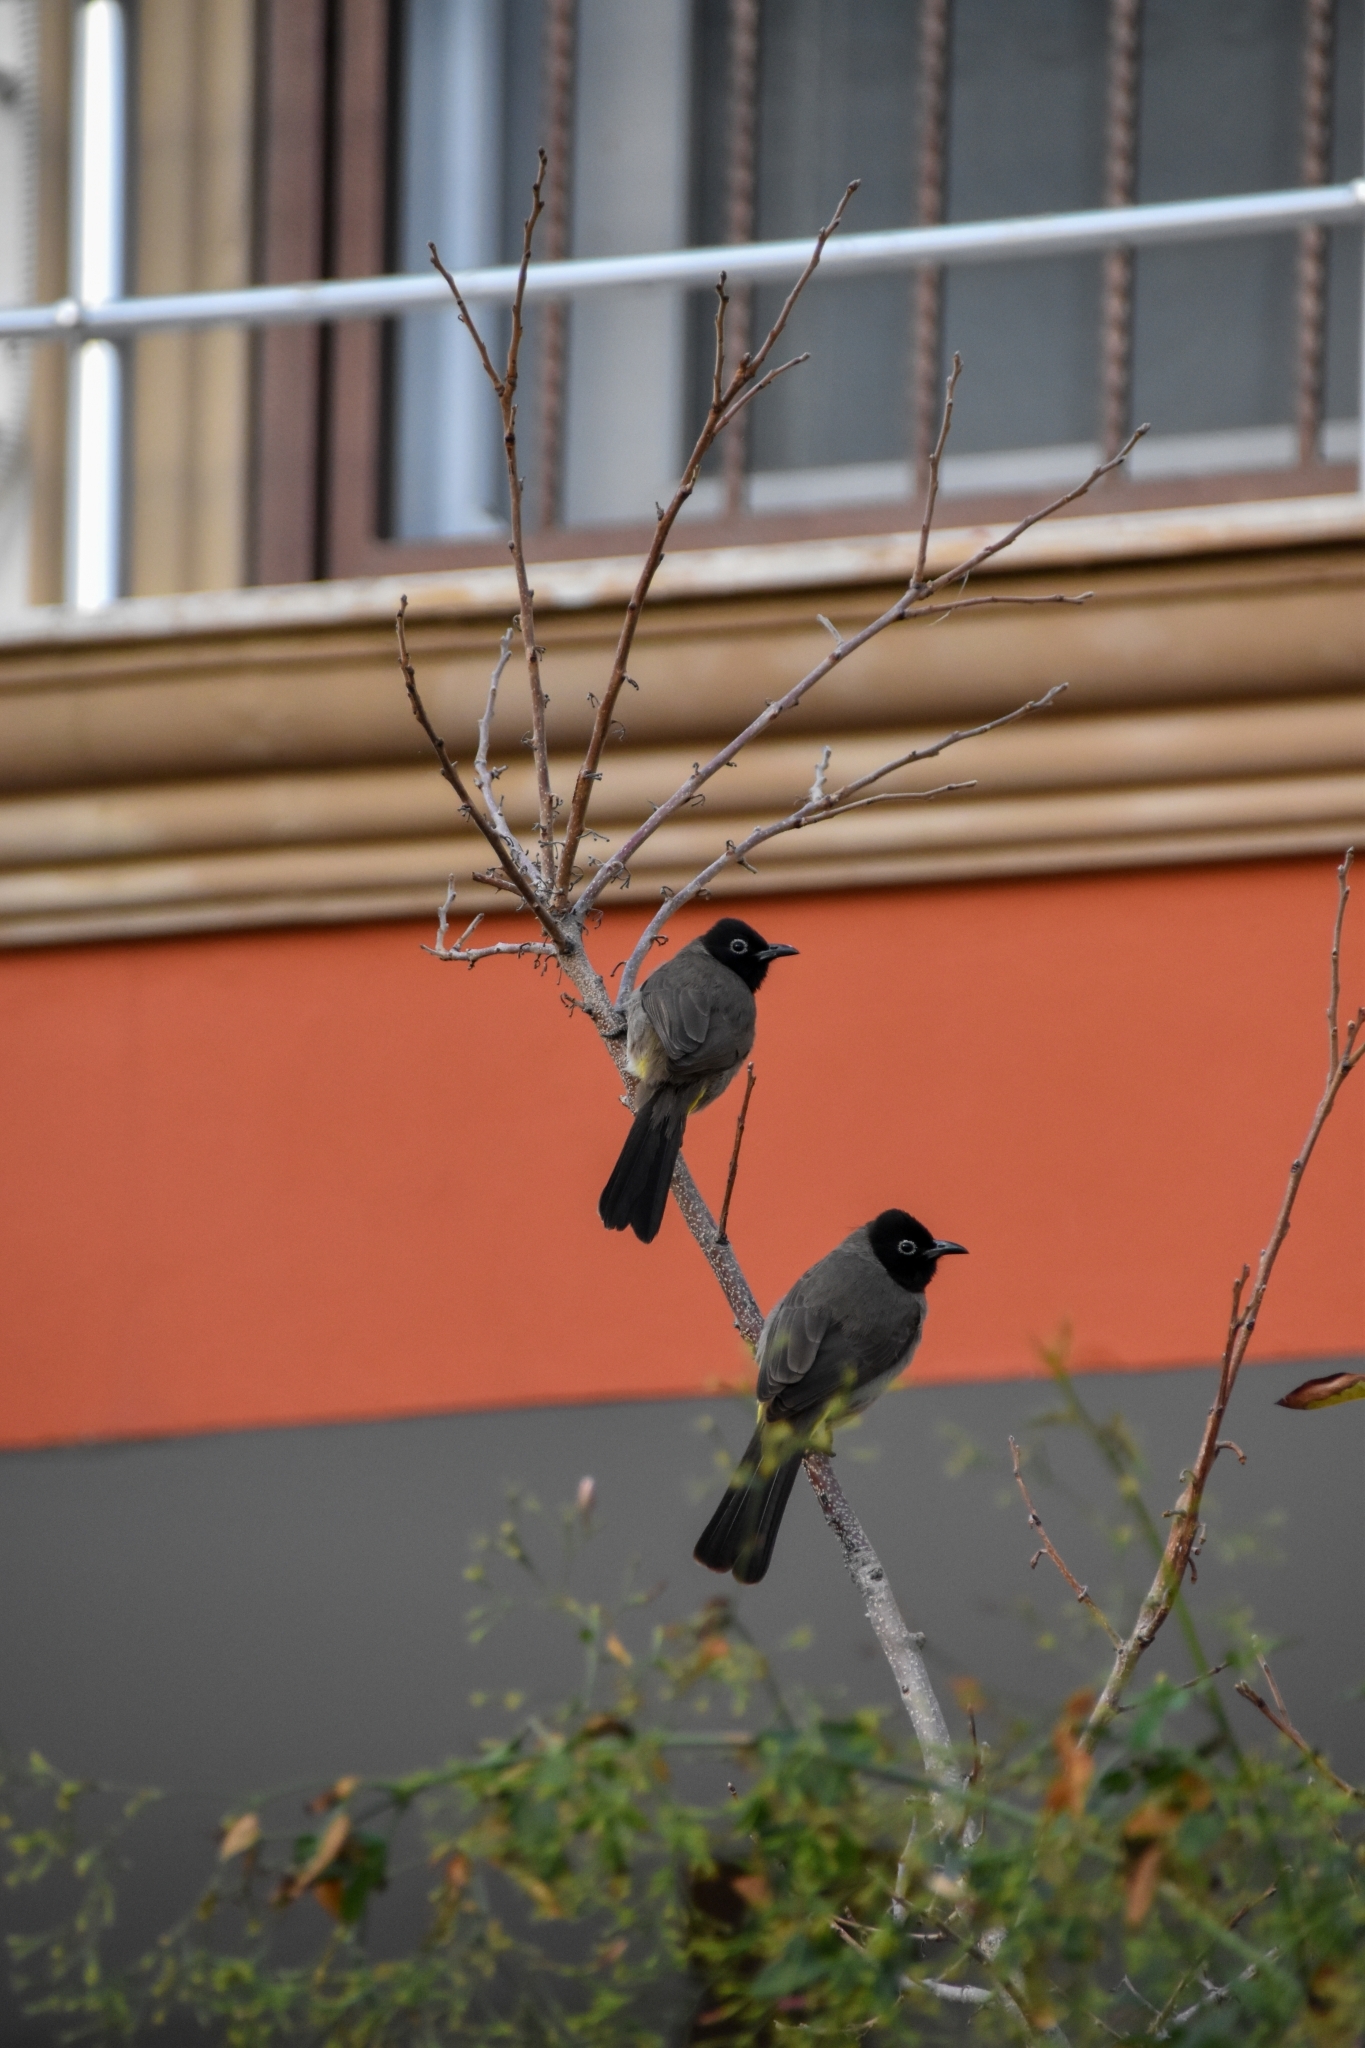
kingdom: Animalia
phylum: Chordata
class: Aves
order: Passeriformes
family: Pycnonotidae
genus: Pycnonotus
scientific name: Pycnonotus xanthopygos
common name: White-spectacled bulbul
